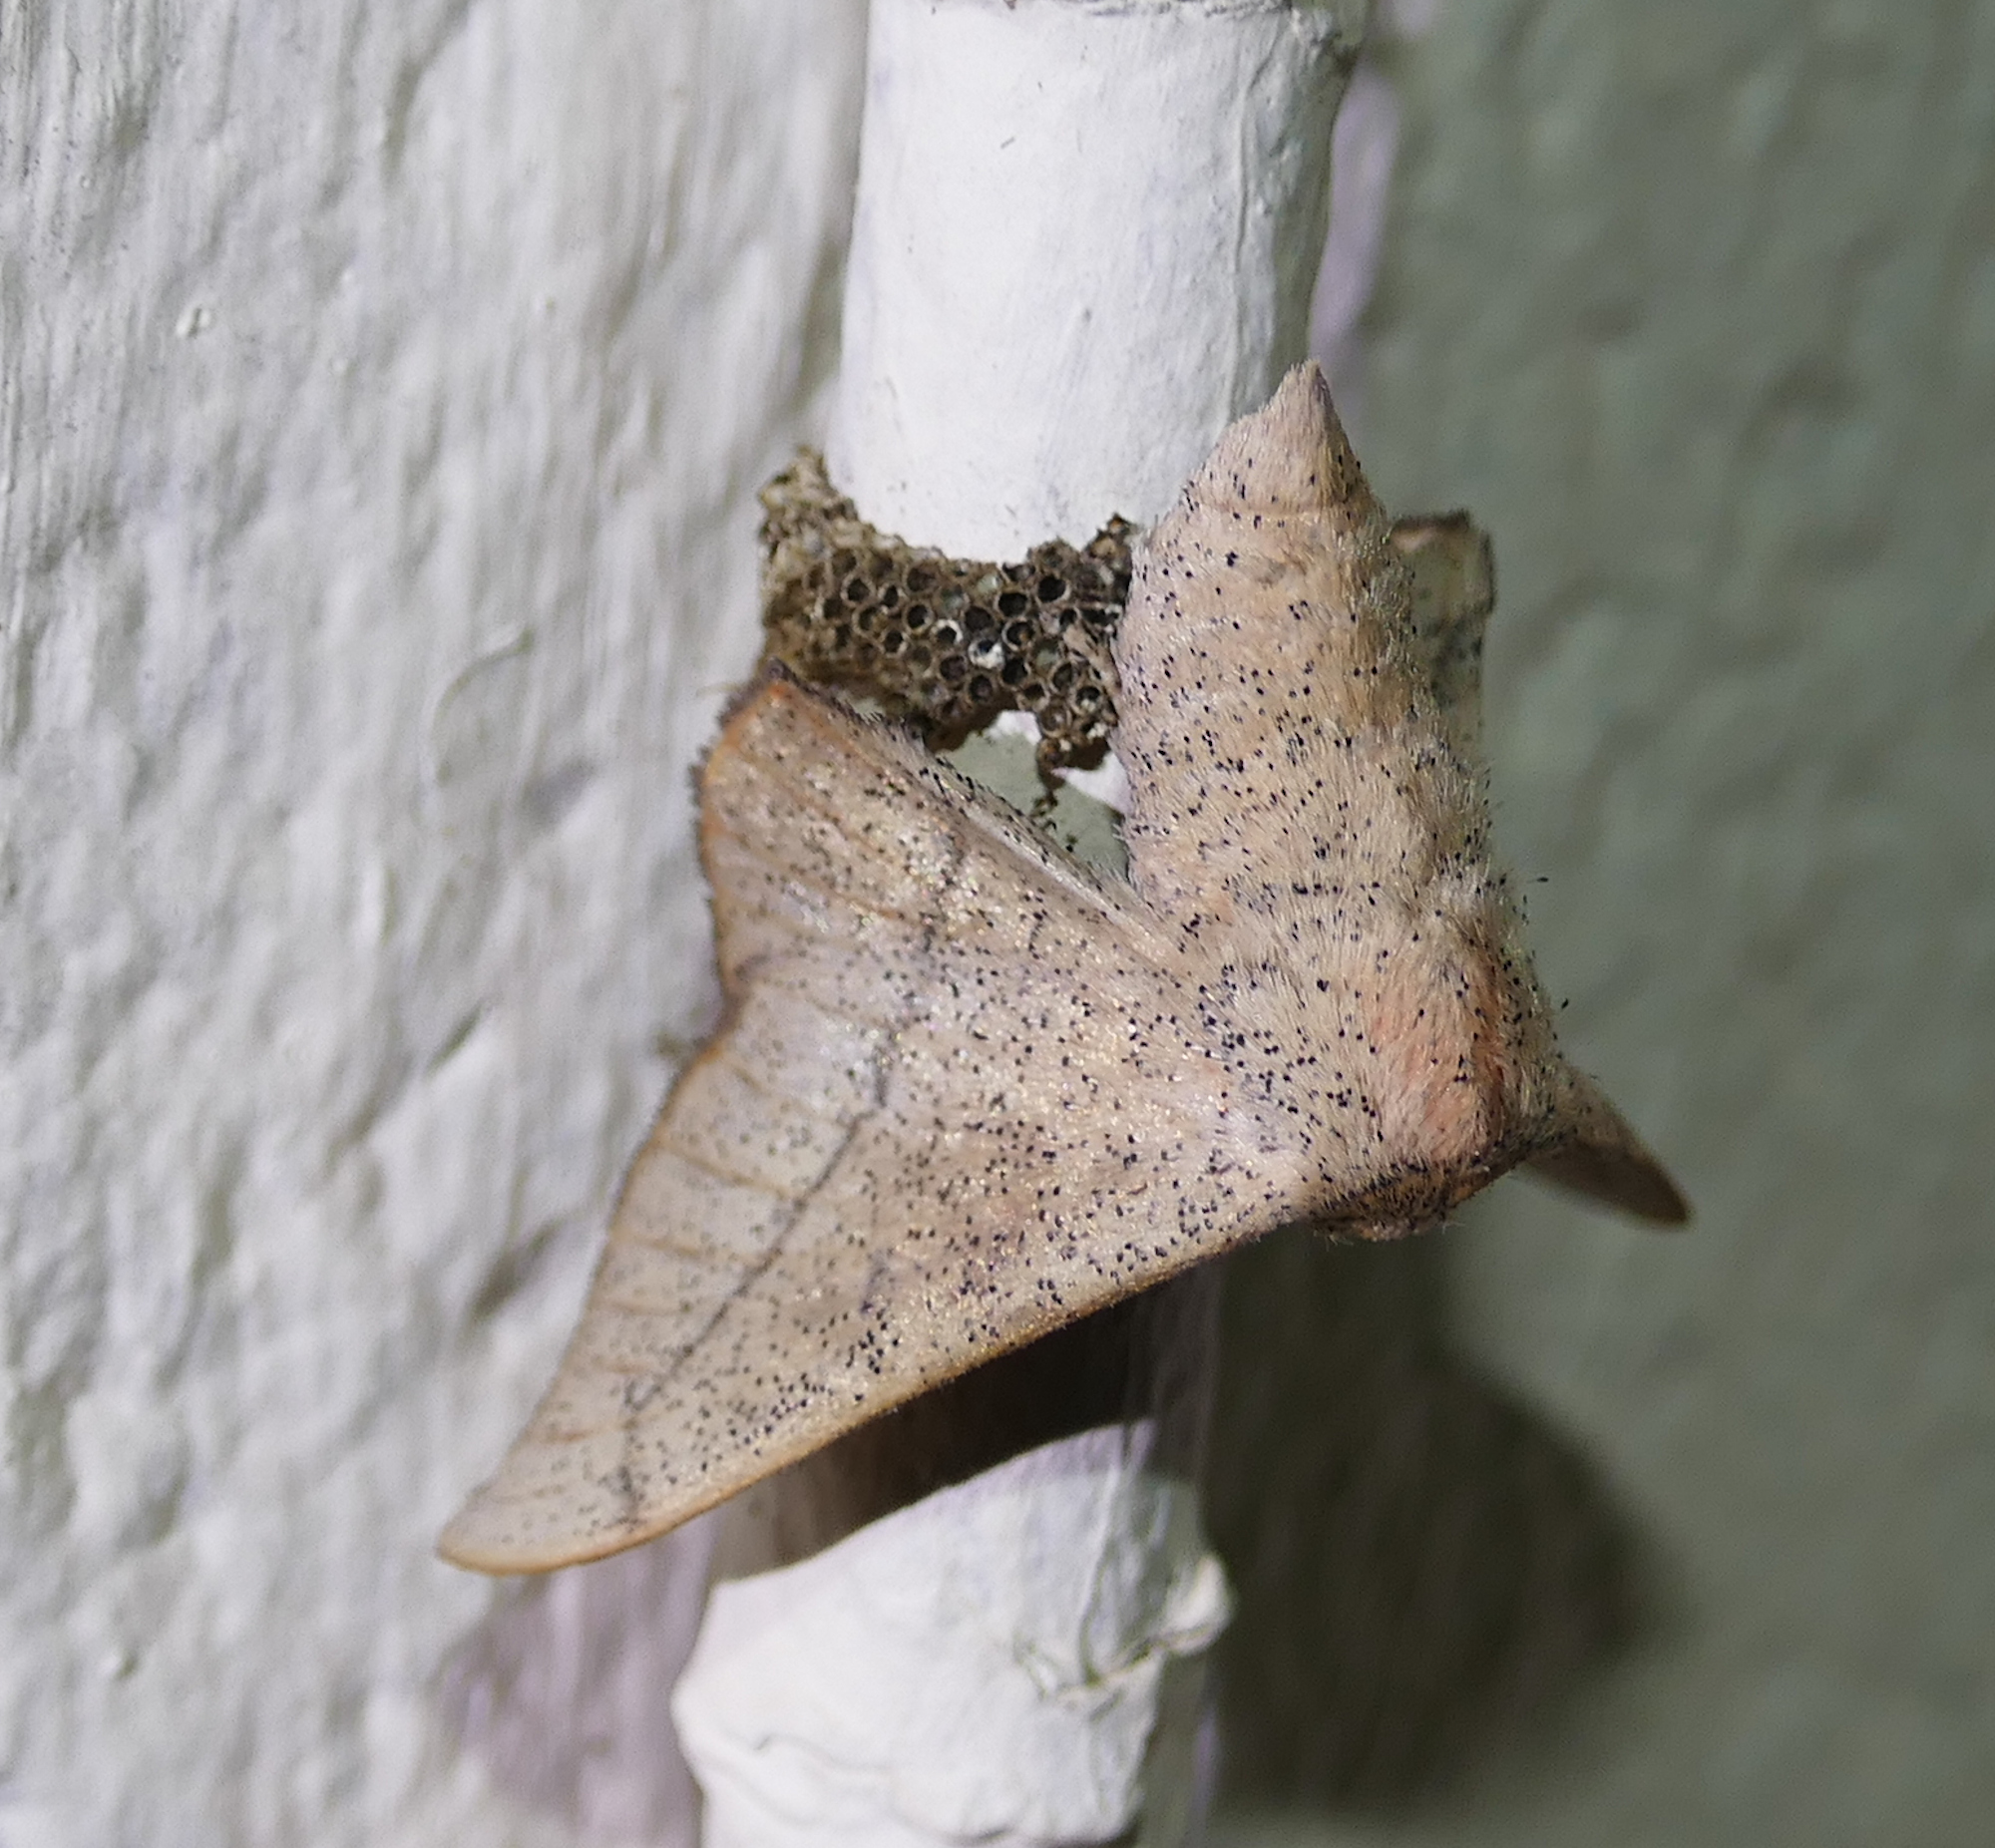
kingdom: Animalia
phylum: Arthropoda
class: Insecta
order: Lepidoptera
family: Mimallonidae
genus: Cicinnus
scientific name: Cicinnus melsheimeri
